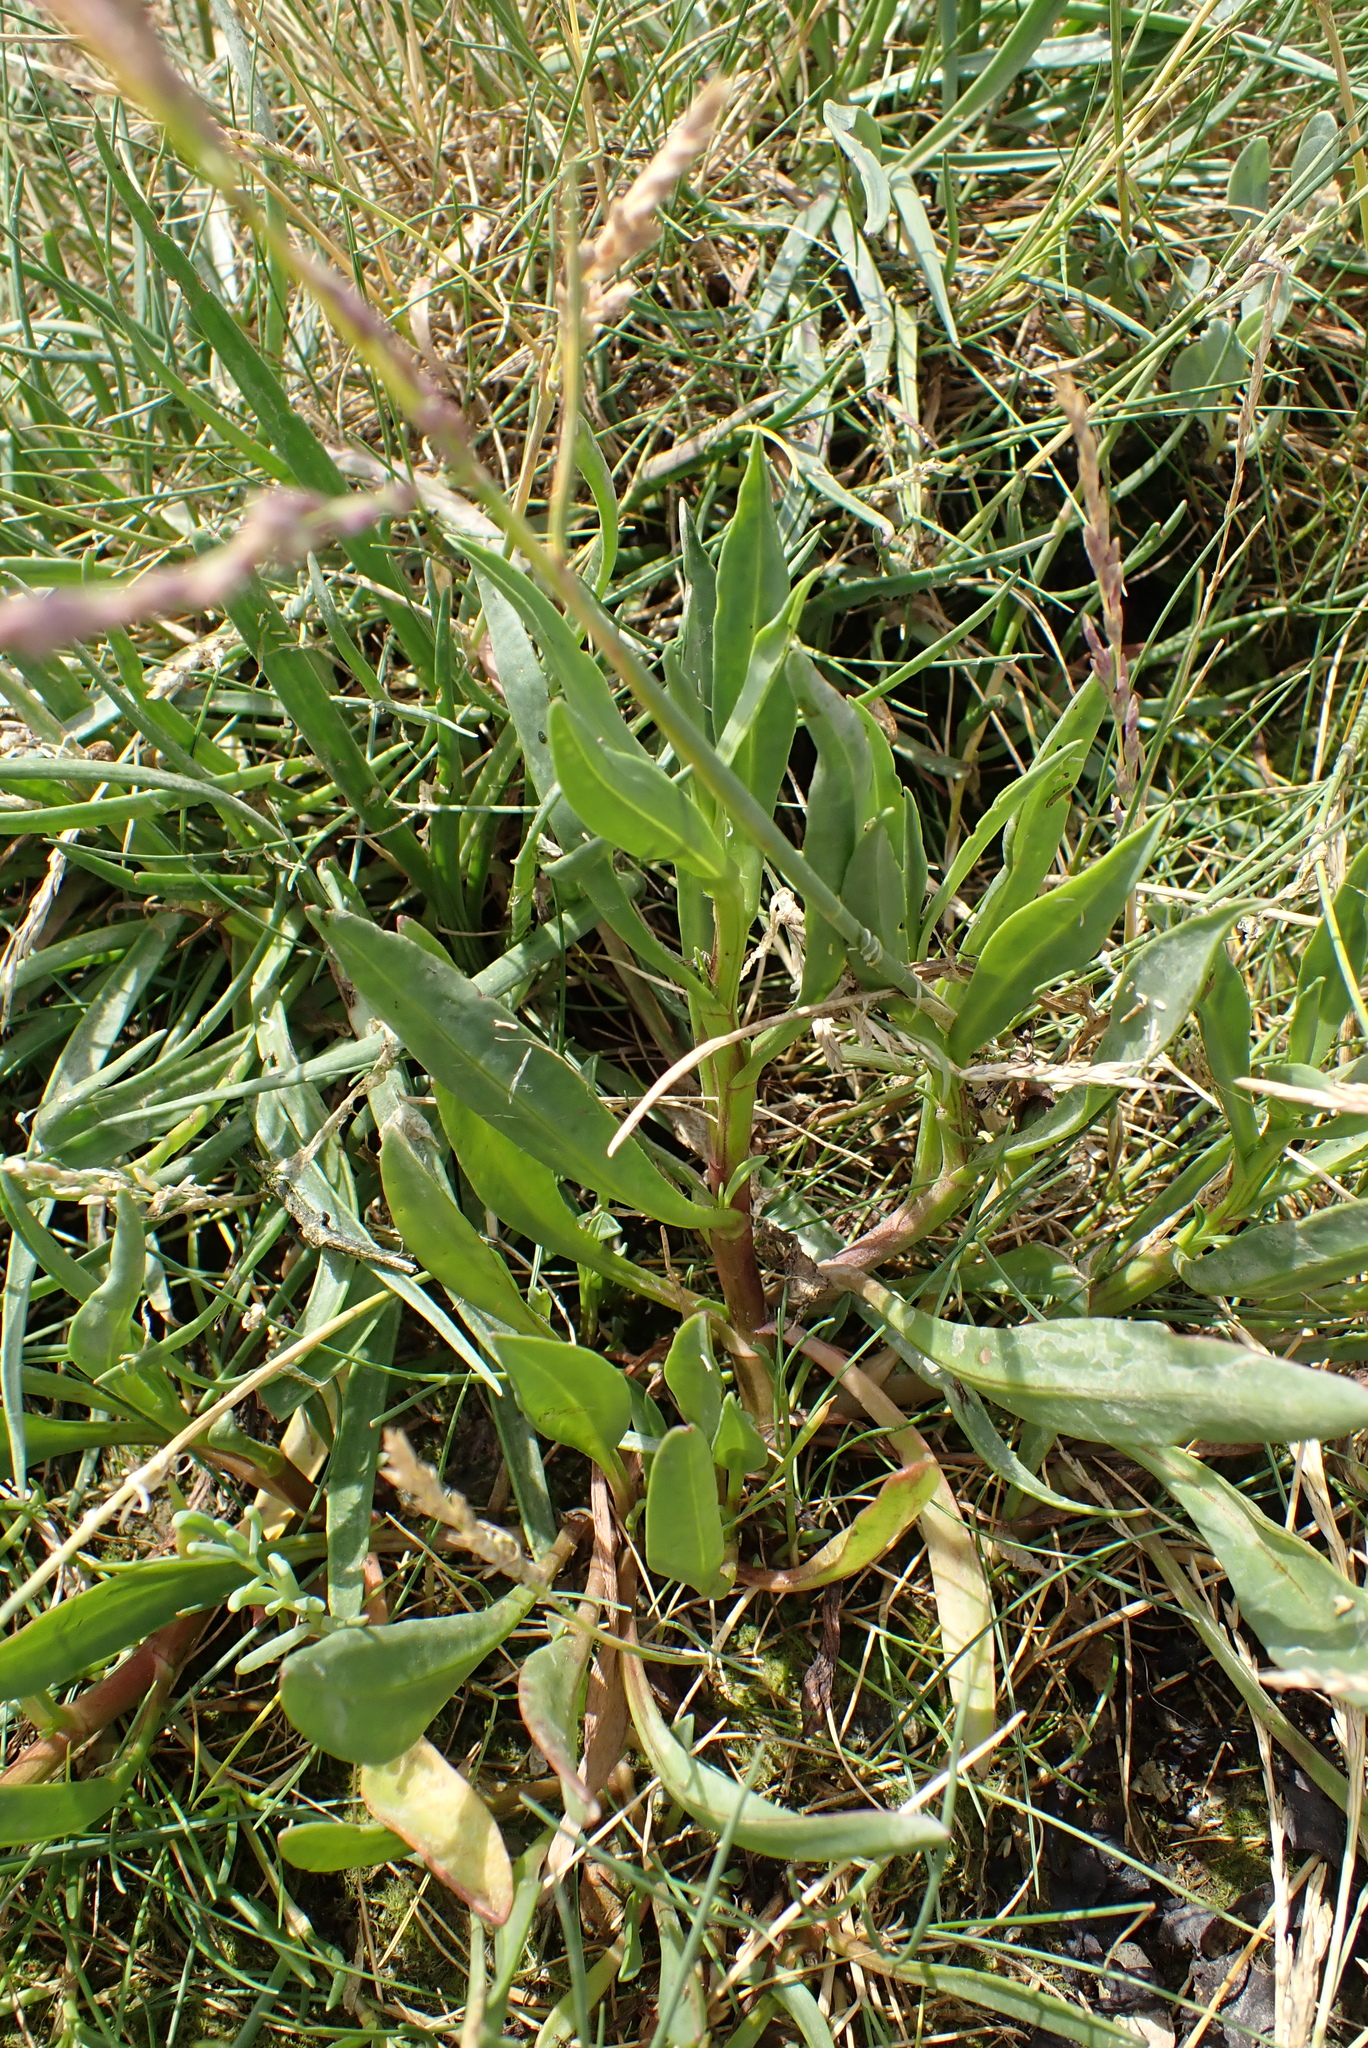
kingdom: Plantae
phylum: Tracheophyta
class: Magnoliopsida
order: Asterales
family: Asteraceae
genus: Tripolium
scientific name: Tripolium pannonicum
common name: Sea aster
